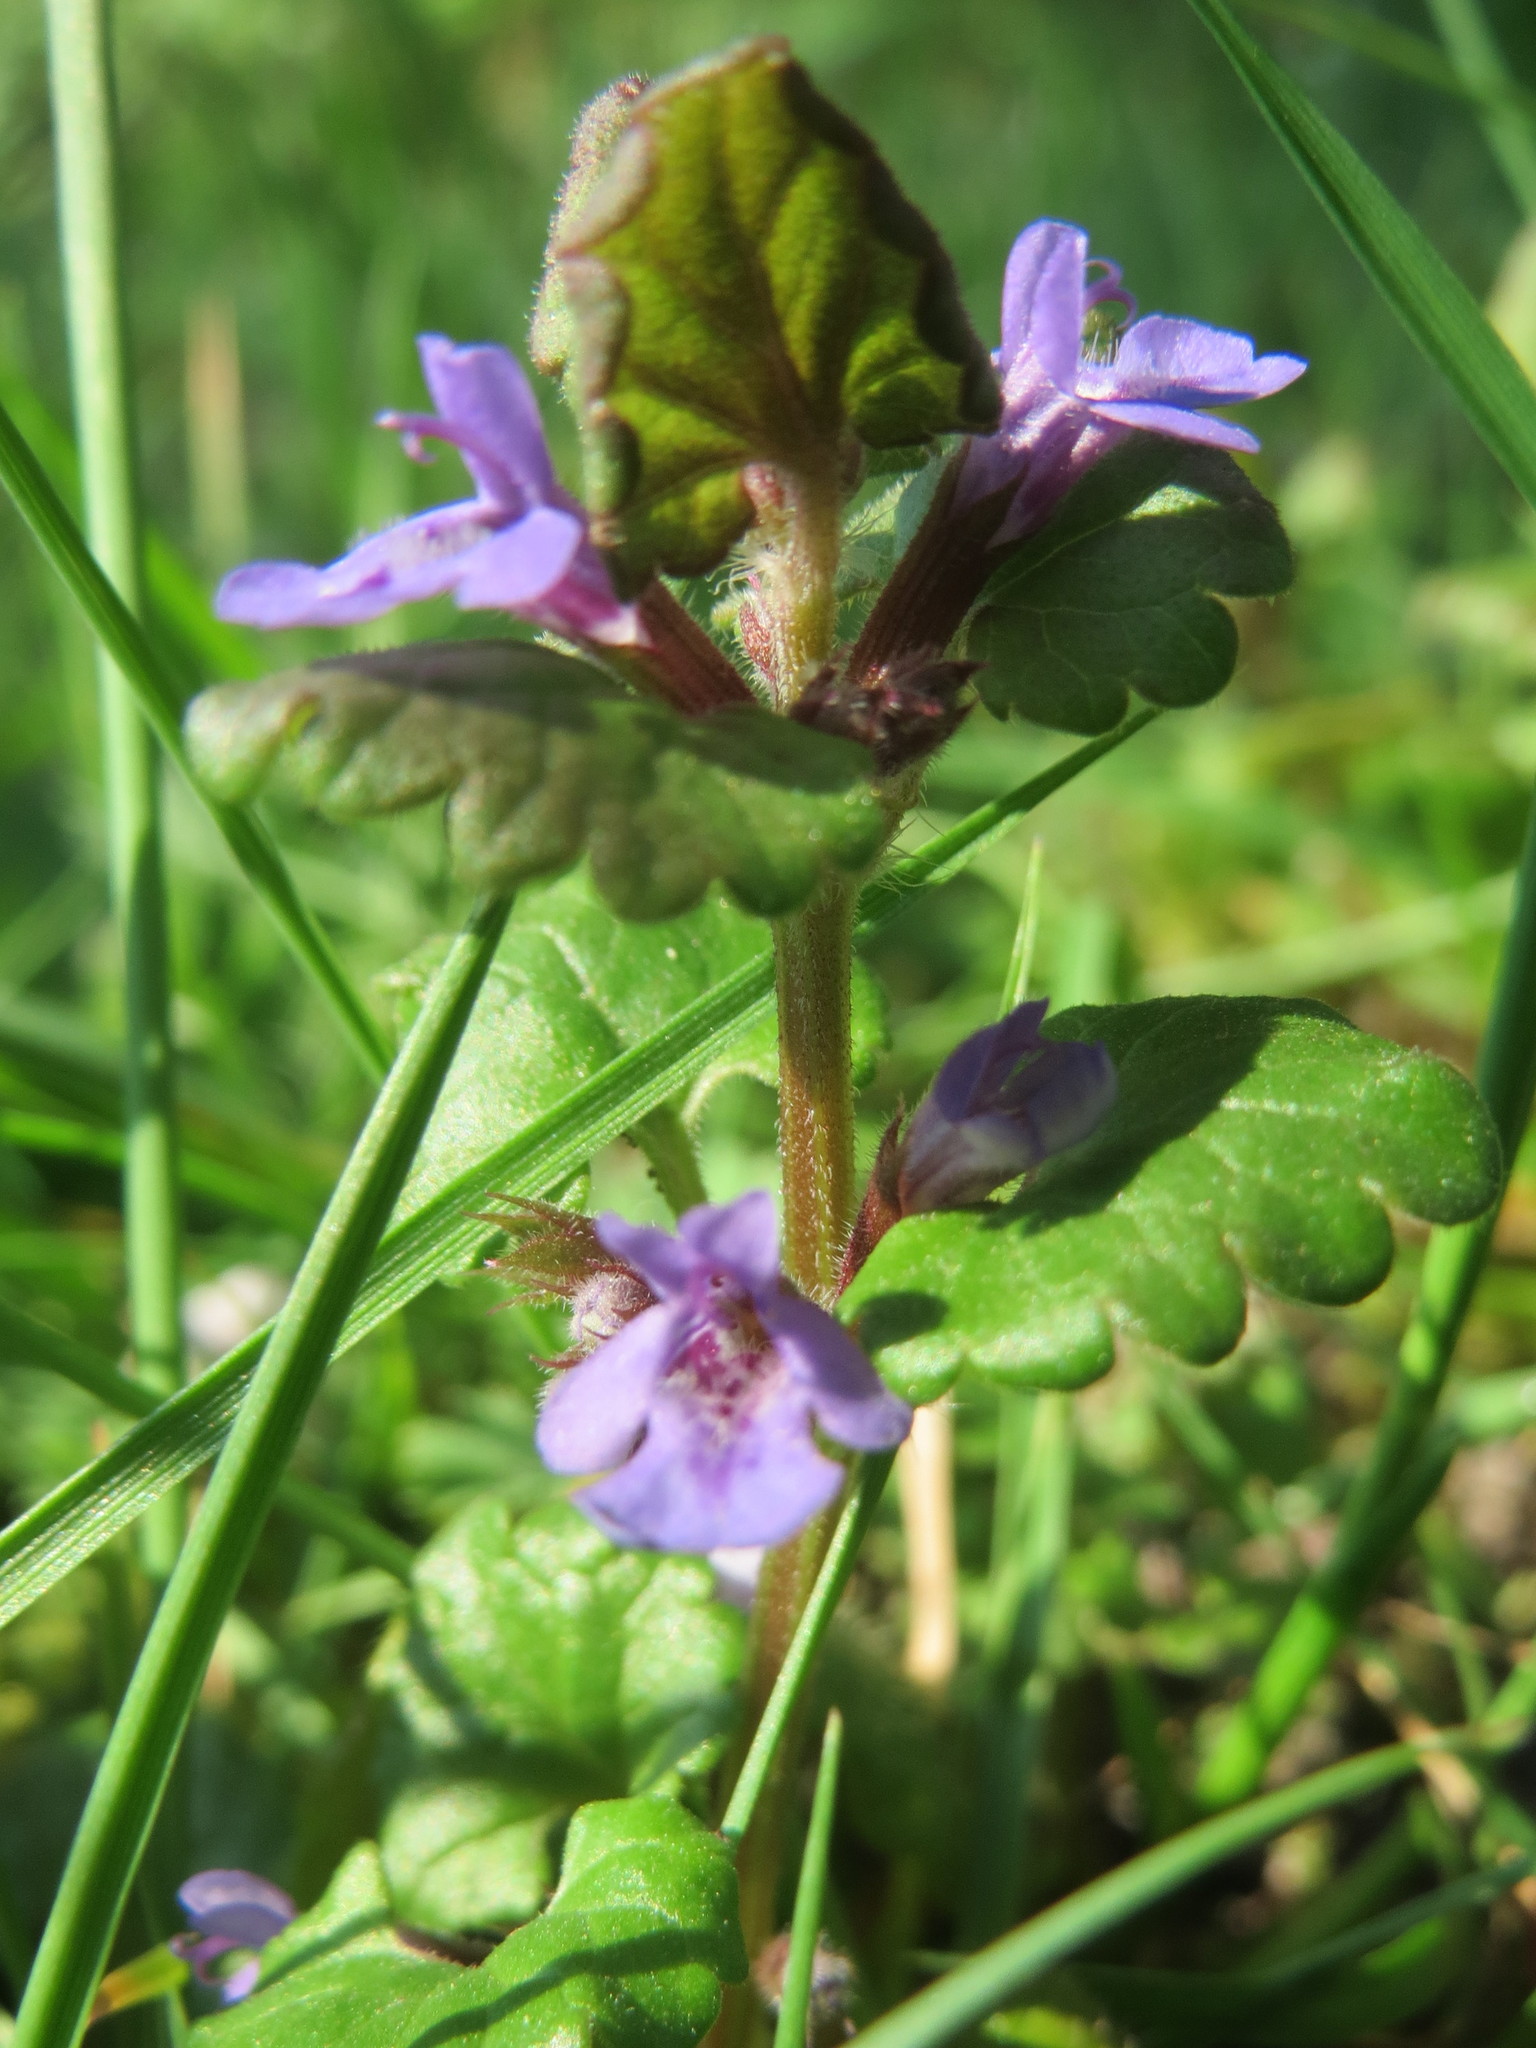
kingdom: Plantae
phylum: Tracheophyta
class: Magnoliopsida
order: Lamiales
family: Lamiaceae
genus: Glechoma
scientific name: Glechoma hederacea
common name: Ground ivy
